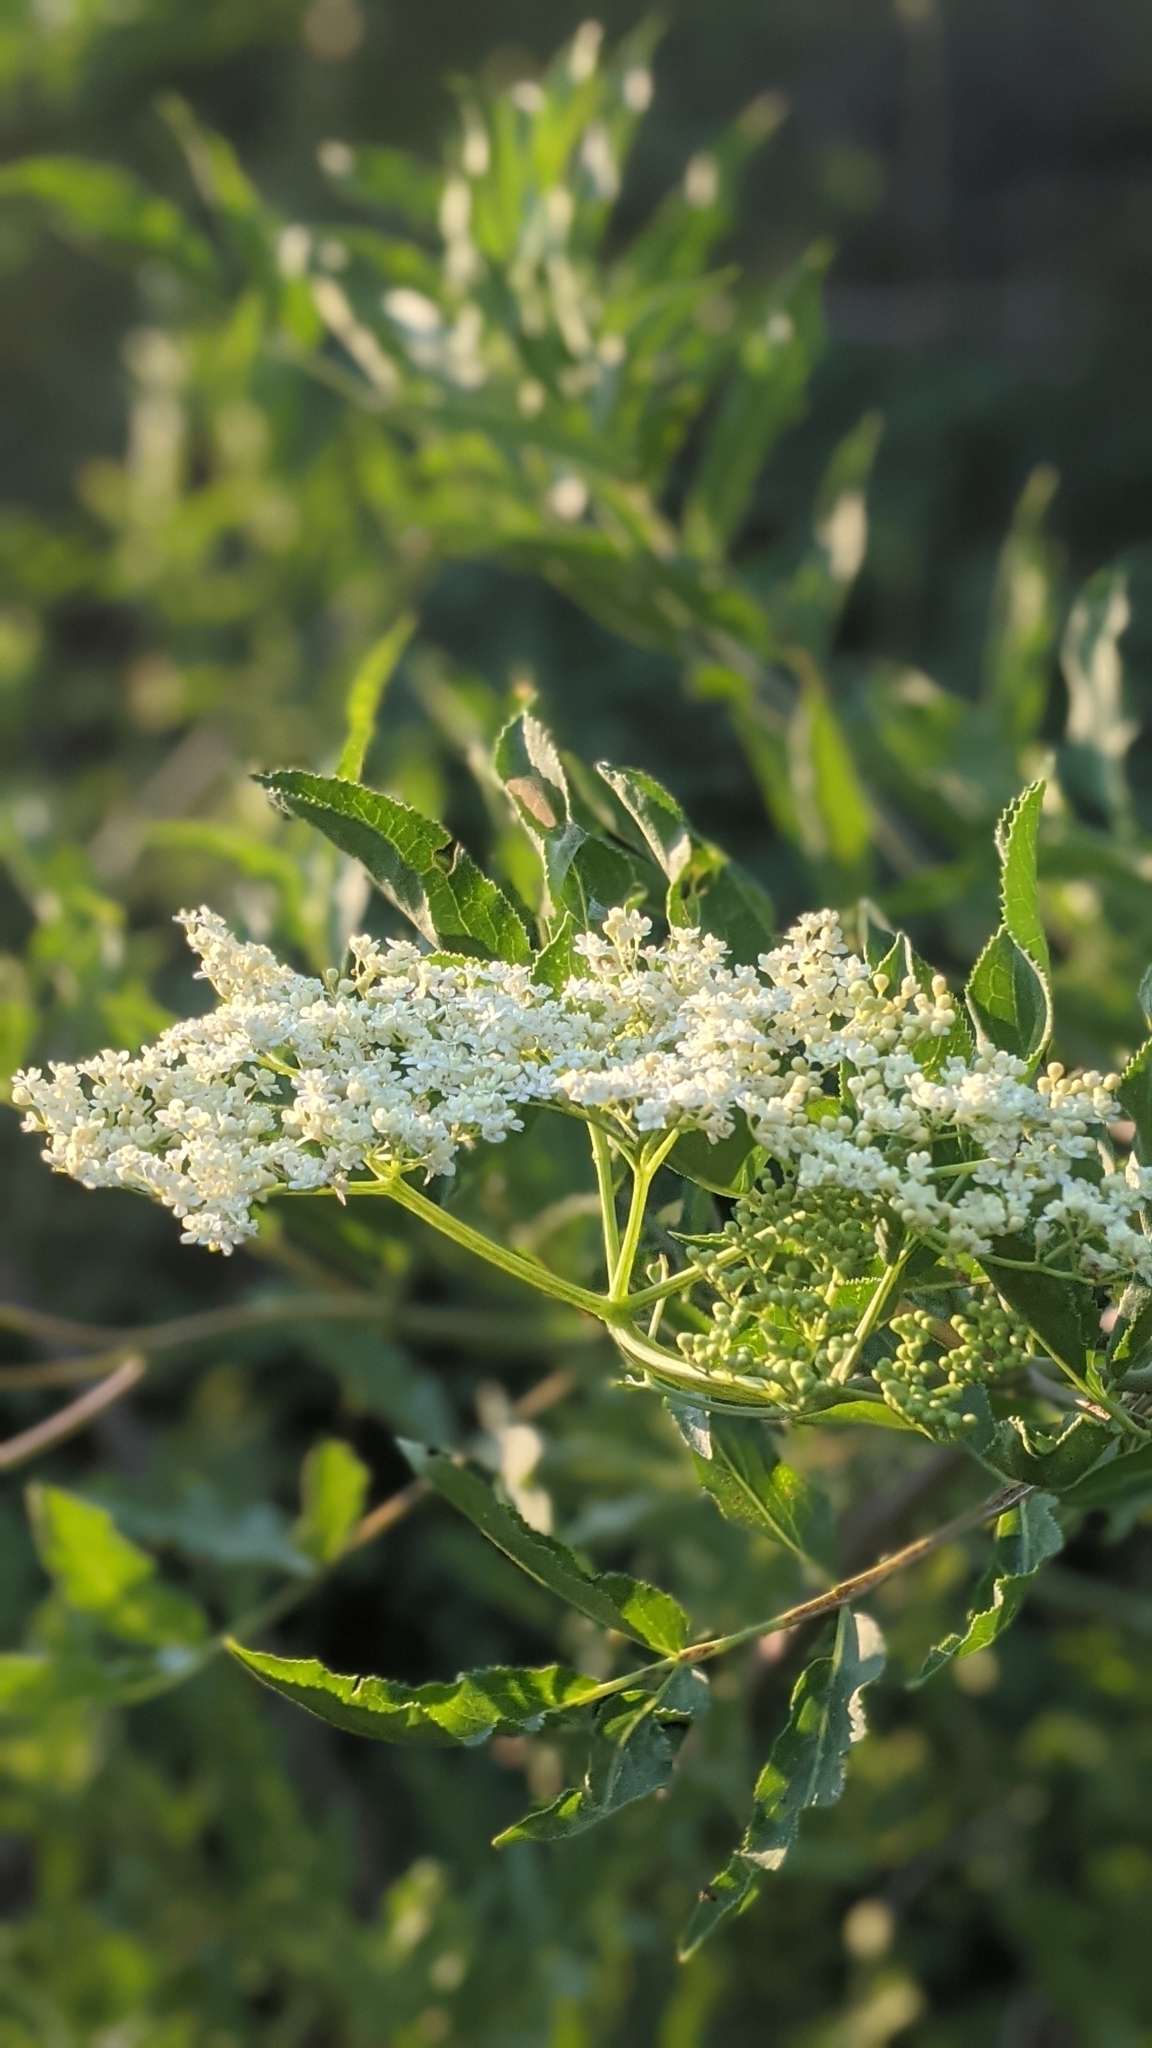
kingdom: Plantae
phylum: Tracheophyta
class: Magnoliopsida
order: Dipsacales
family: Viburnaceae
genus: Sambucus
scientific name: Sambucus cerulea
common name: Blue elder
